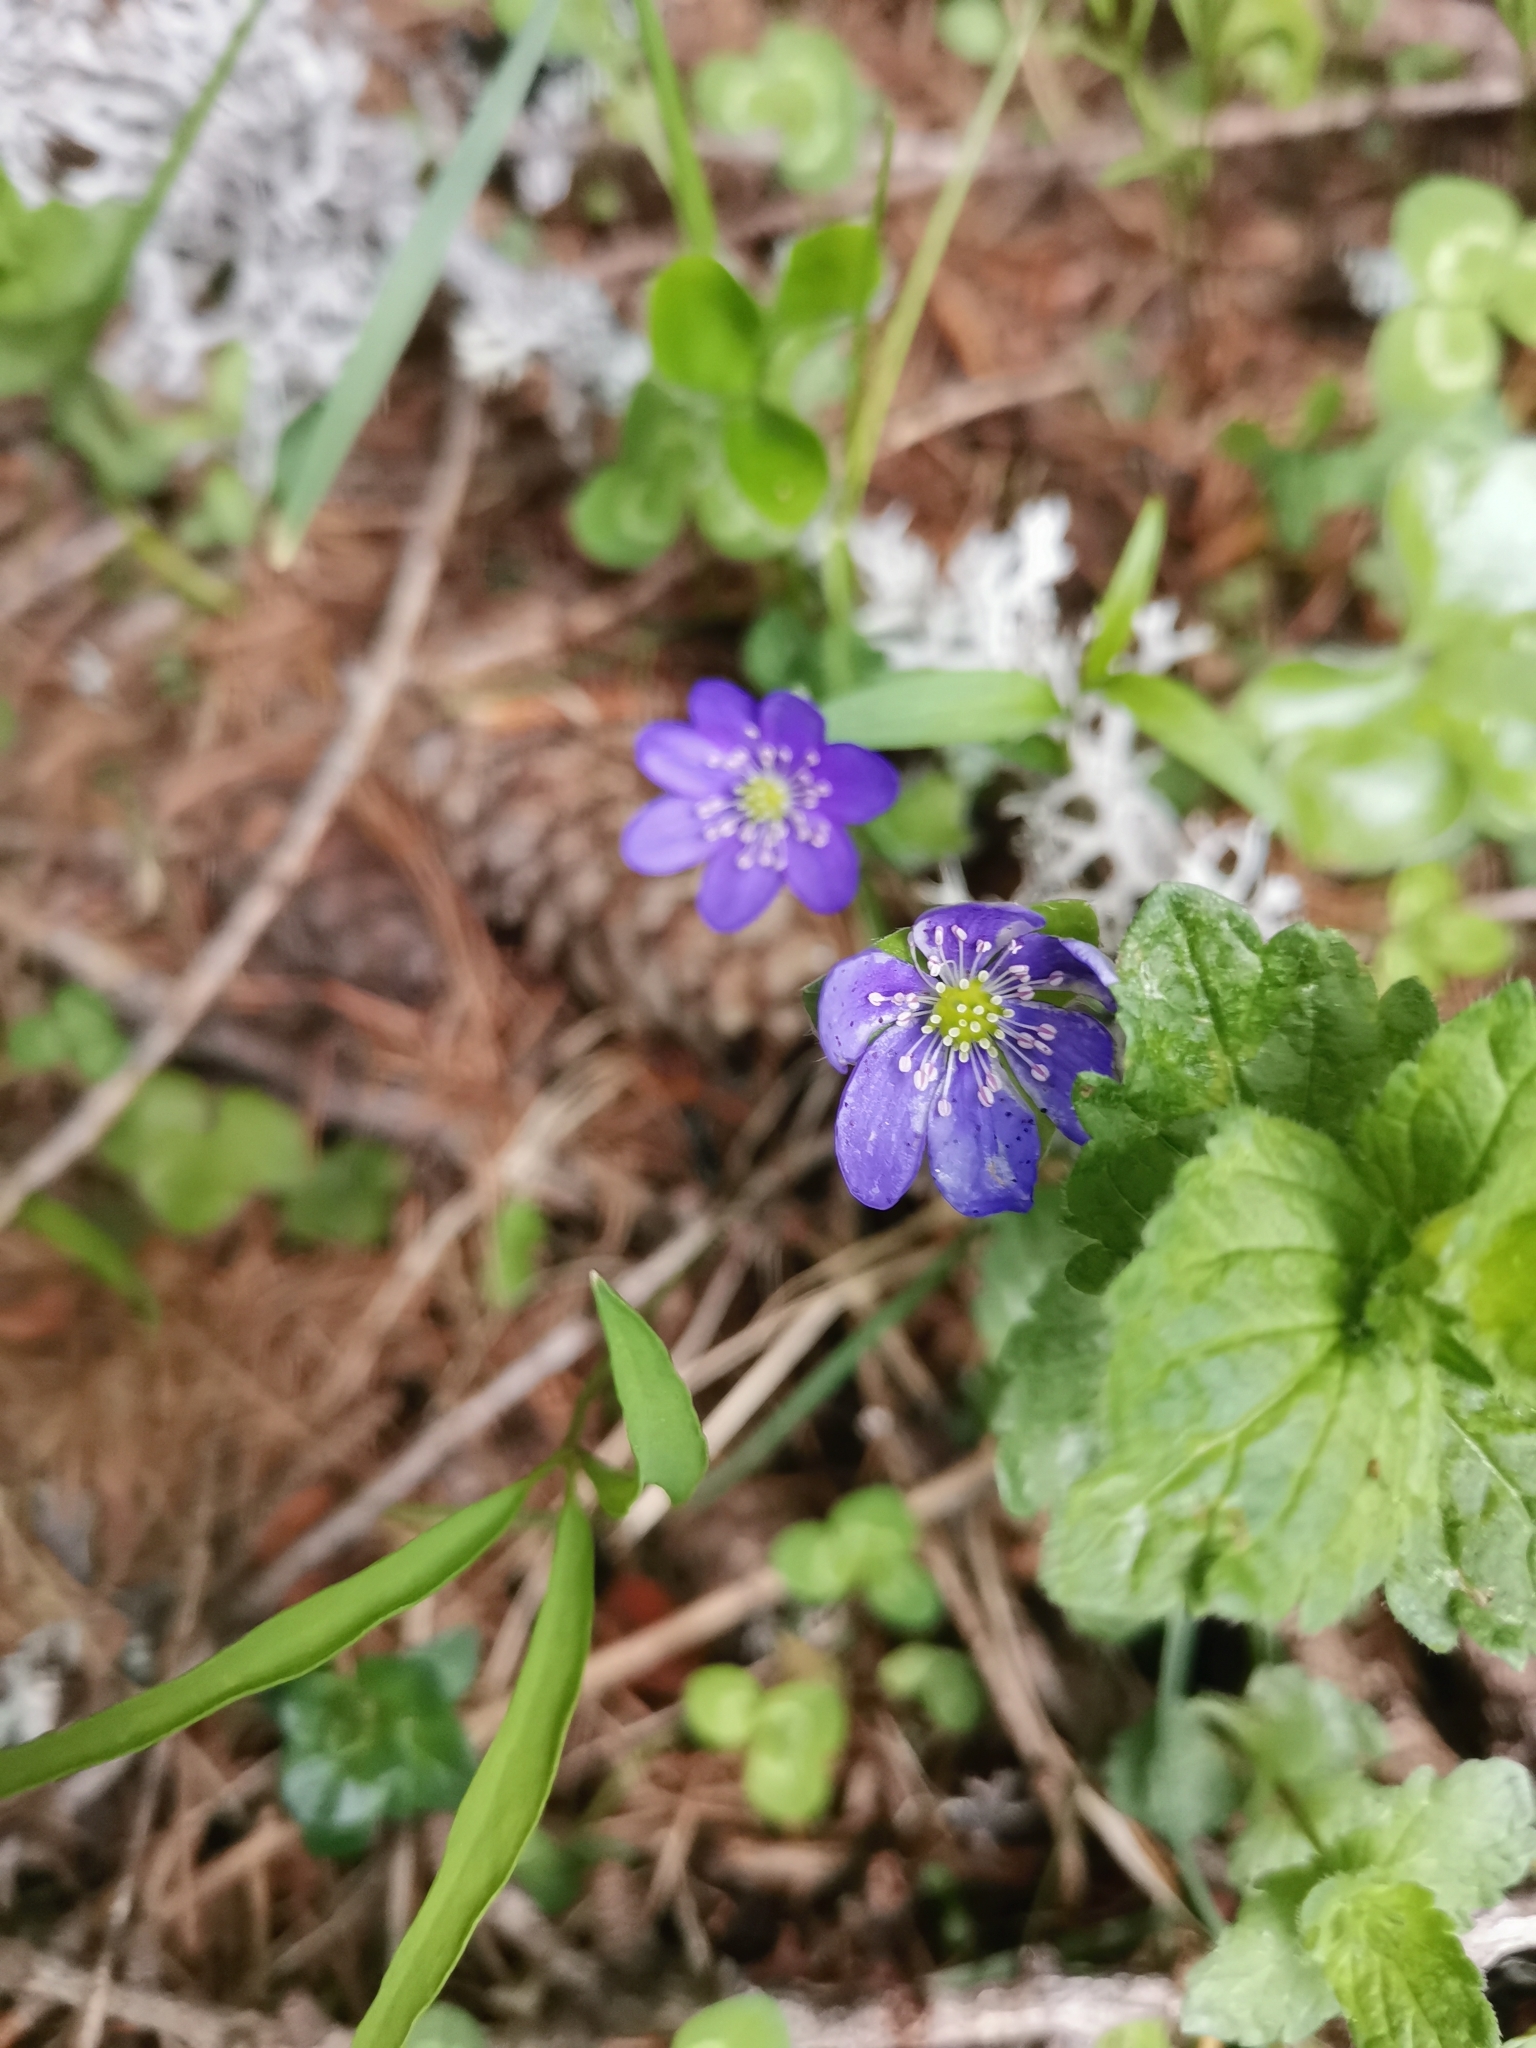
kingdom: Plantae
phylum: Tracheophyta
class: Magnoliopsida
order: Ranunculales
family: Ranunculaceae
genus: Hepatica
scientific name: Hepatica nobilis
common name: Liverleaf
